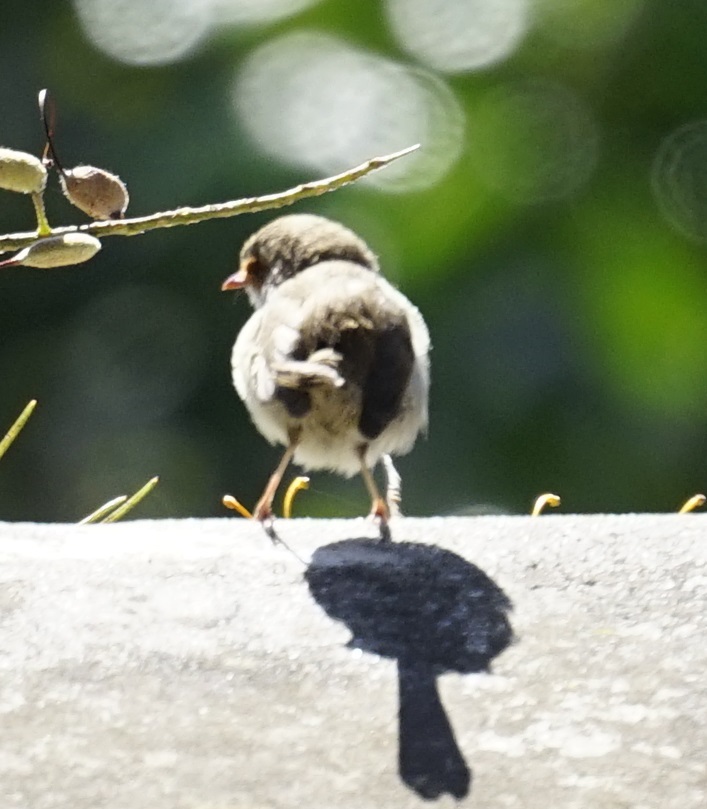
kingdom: Animalia
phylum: Chordata
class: Aves
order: Passeriformes
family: Maluridae
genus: Malurus
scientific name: Malurus cyaneus
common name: Superb fairywren
